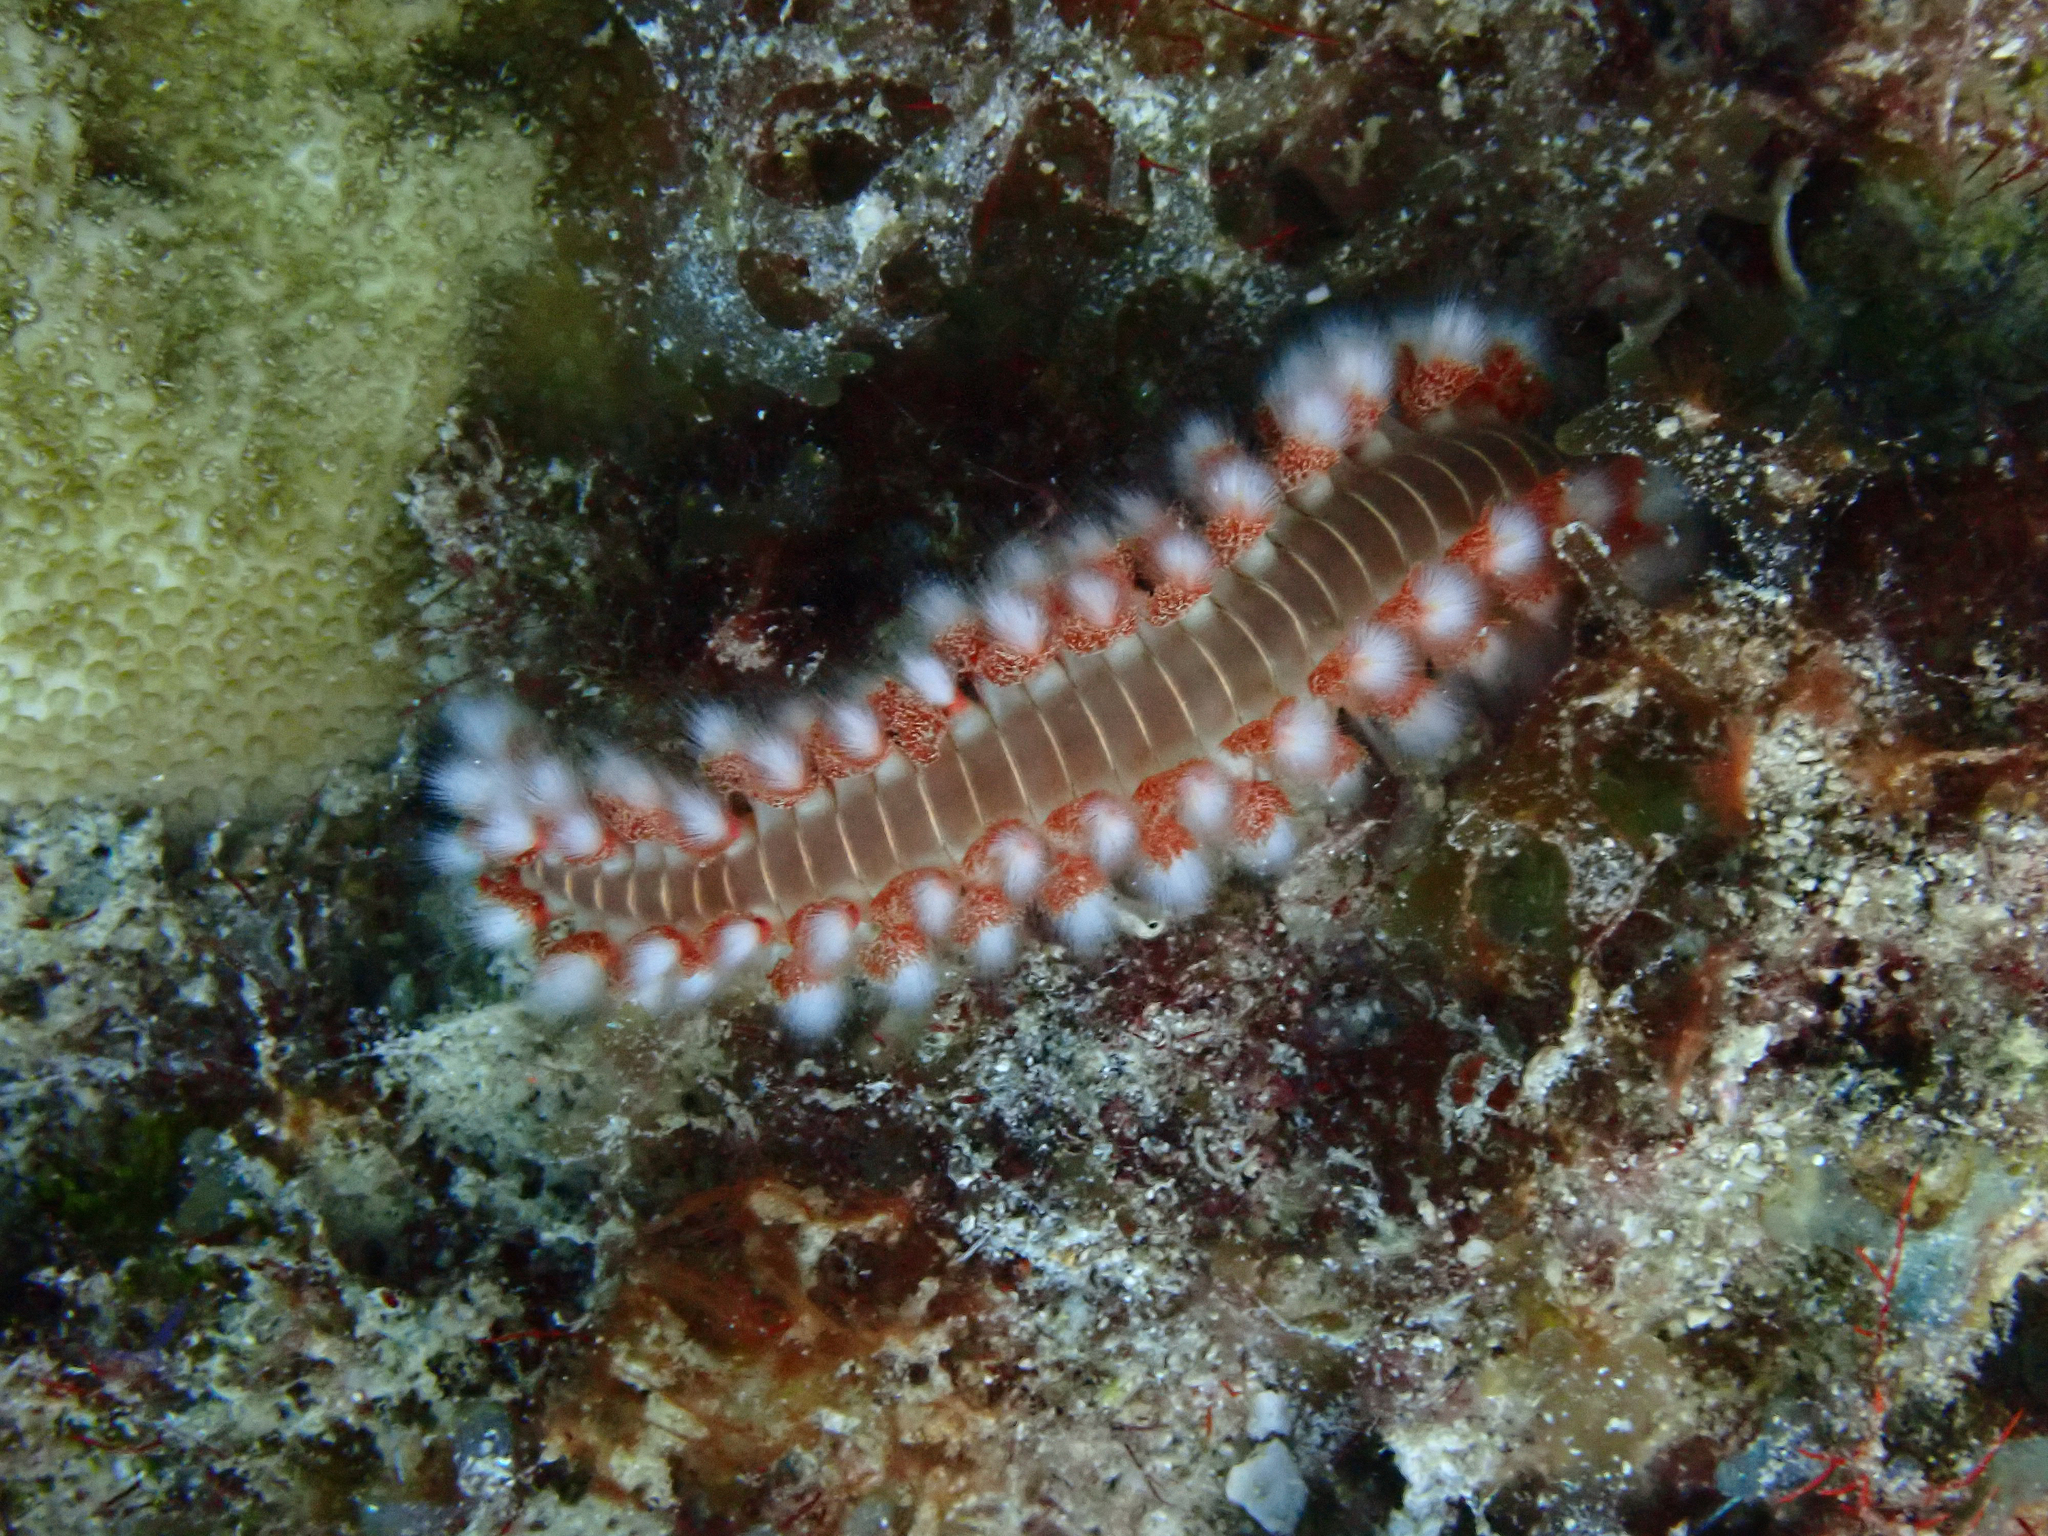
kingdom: Animalia
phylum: Annelida
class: Polychaeta
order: Amphinomida
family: Amphinomidae
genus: Hermodice
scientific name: Hermodice carunculata
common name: Bearded fireworm
